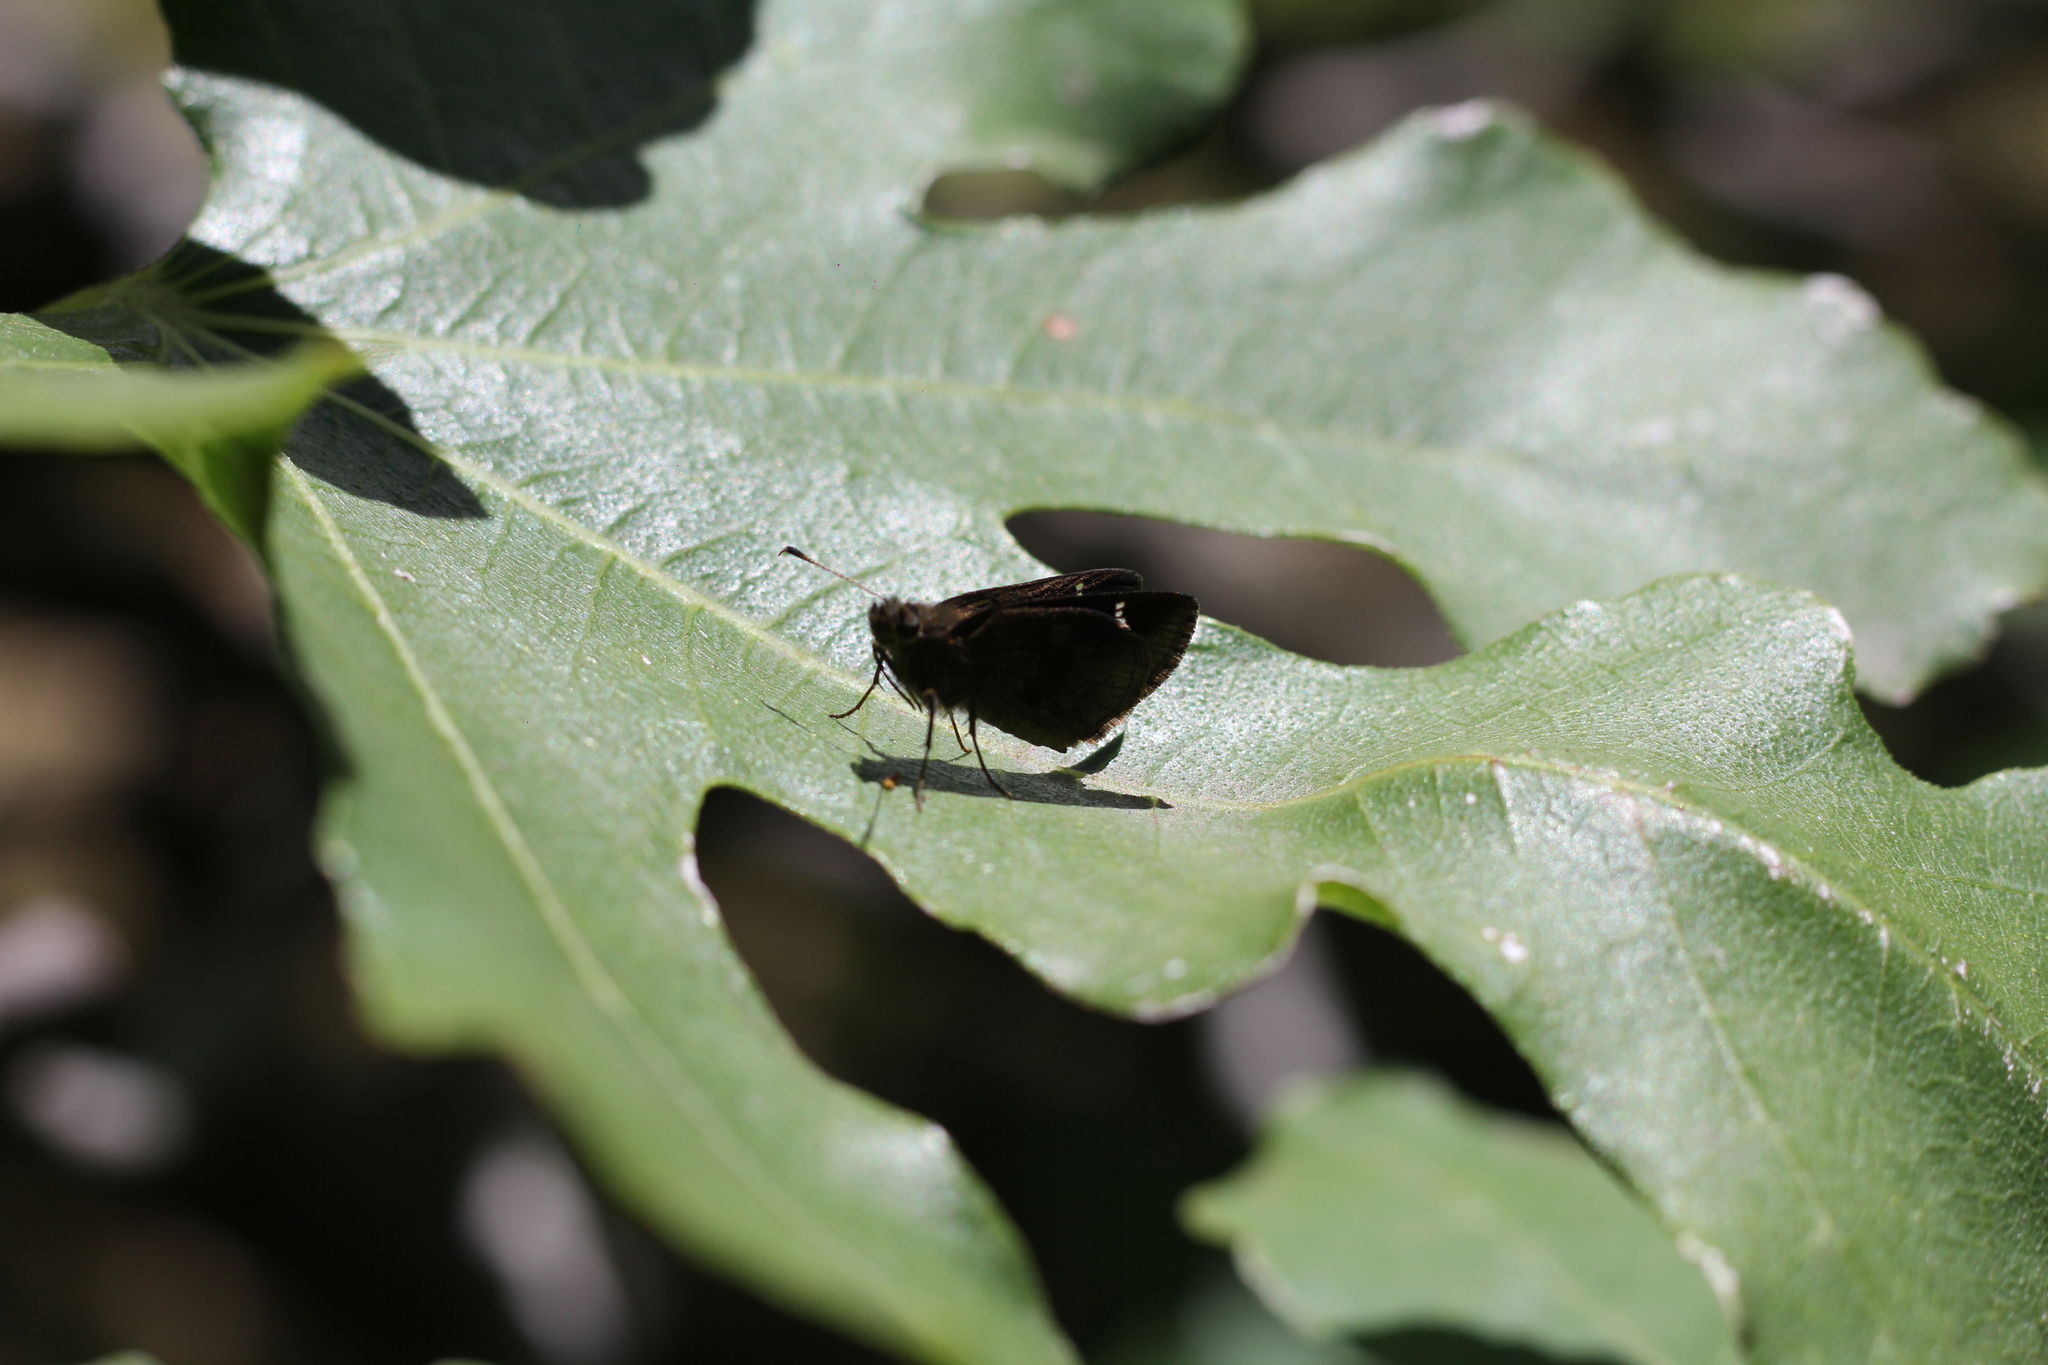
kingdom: Animalia
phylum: Arthropoda
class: Insecta
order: Lepidoptera
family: Hesperiidae
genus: Cymaenes
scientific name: Cymaenes
